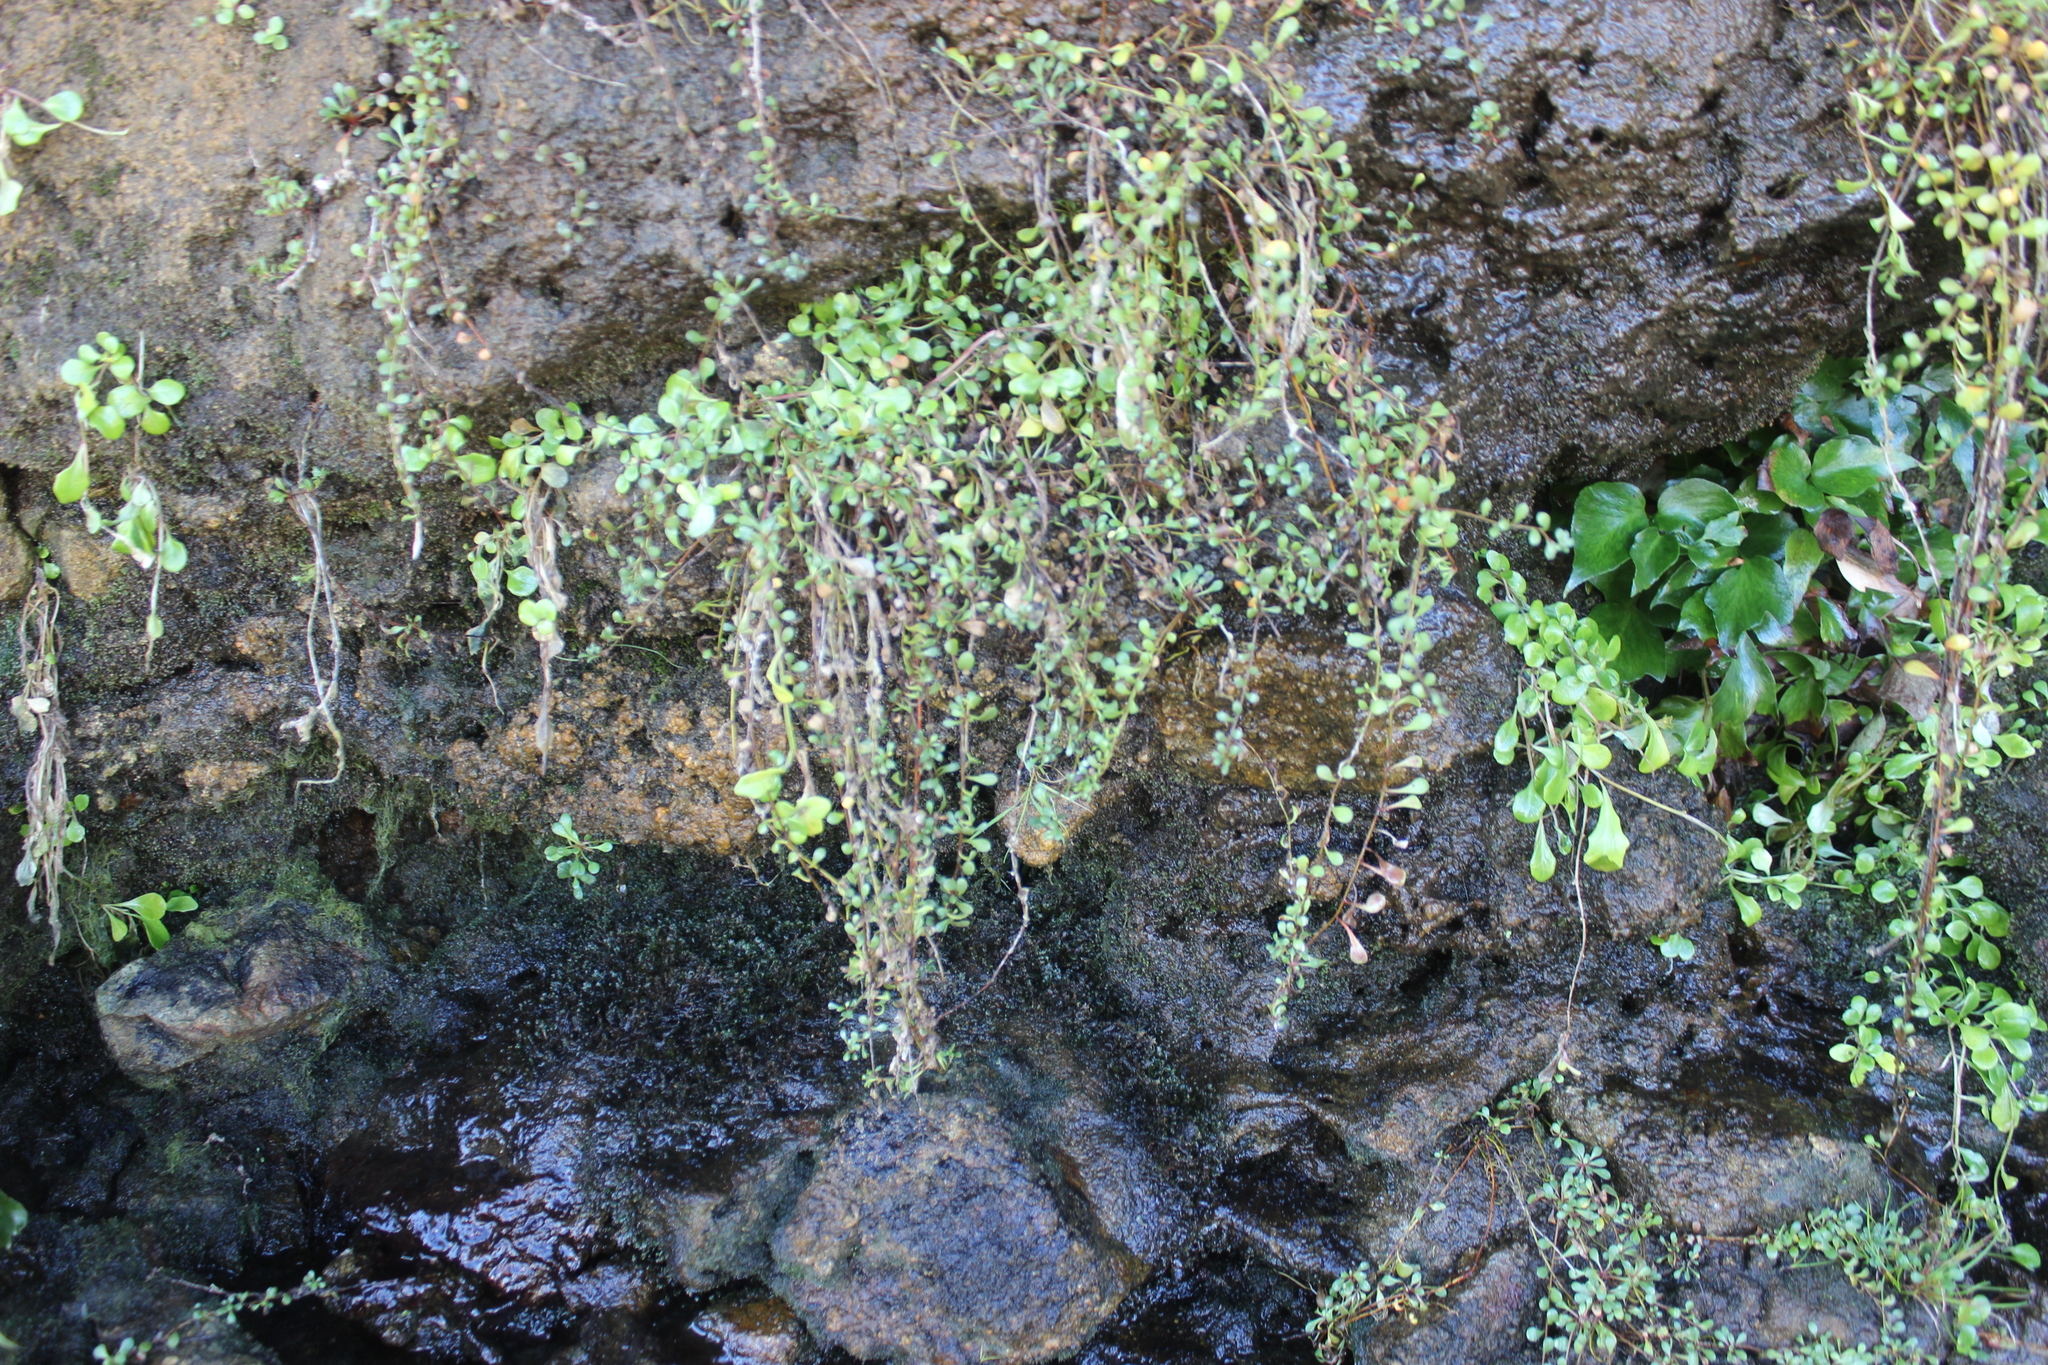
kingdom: Plantae
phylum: Tracheophyta
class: Magnoliopsida
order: Ericales
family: Primulaceae
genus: Samolus
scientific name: Samolus repens
